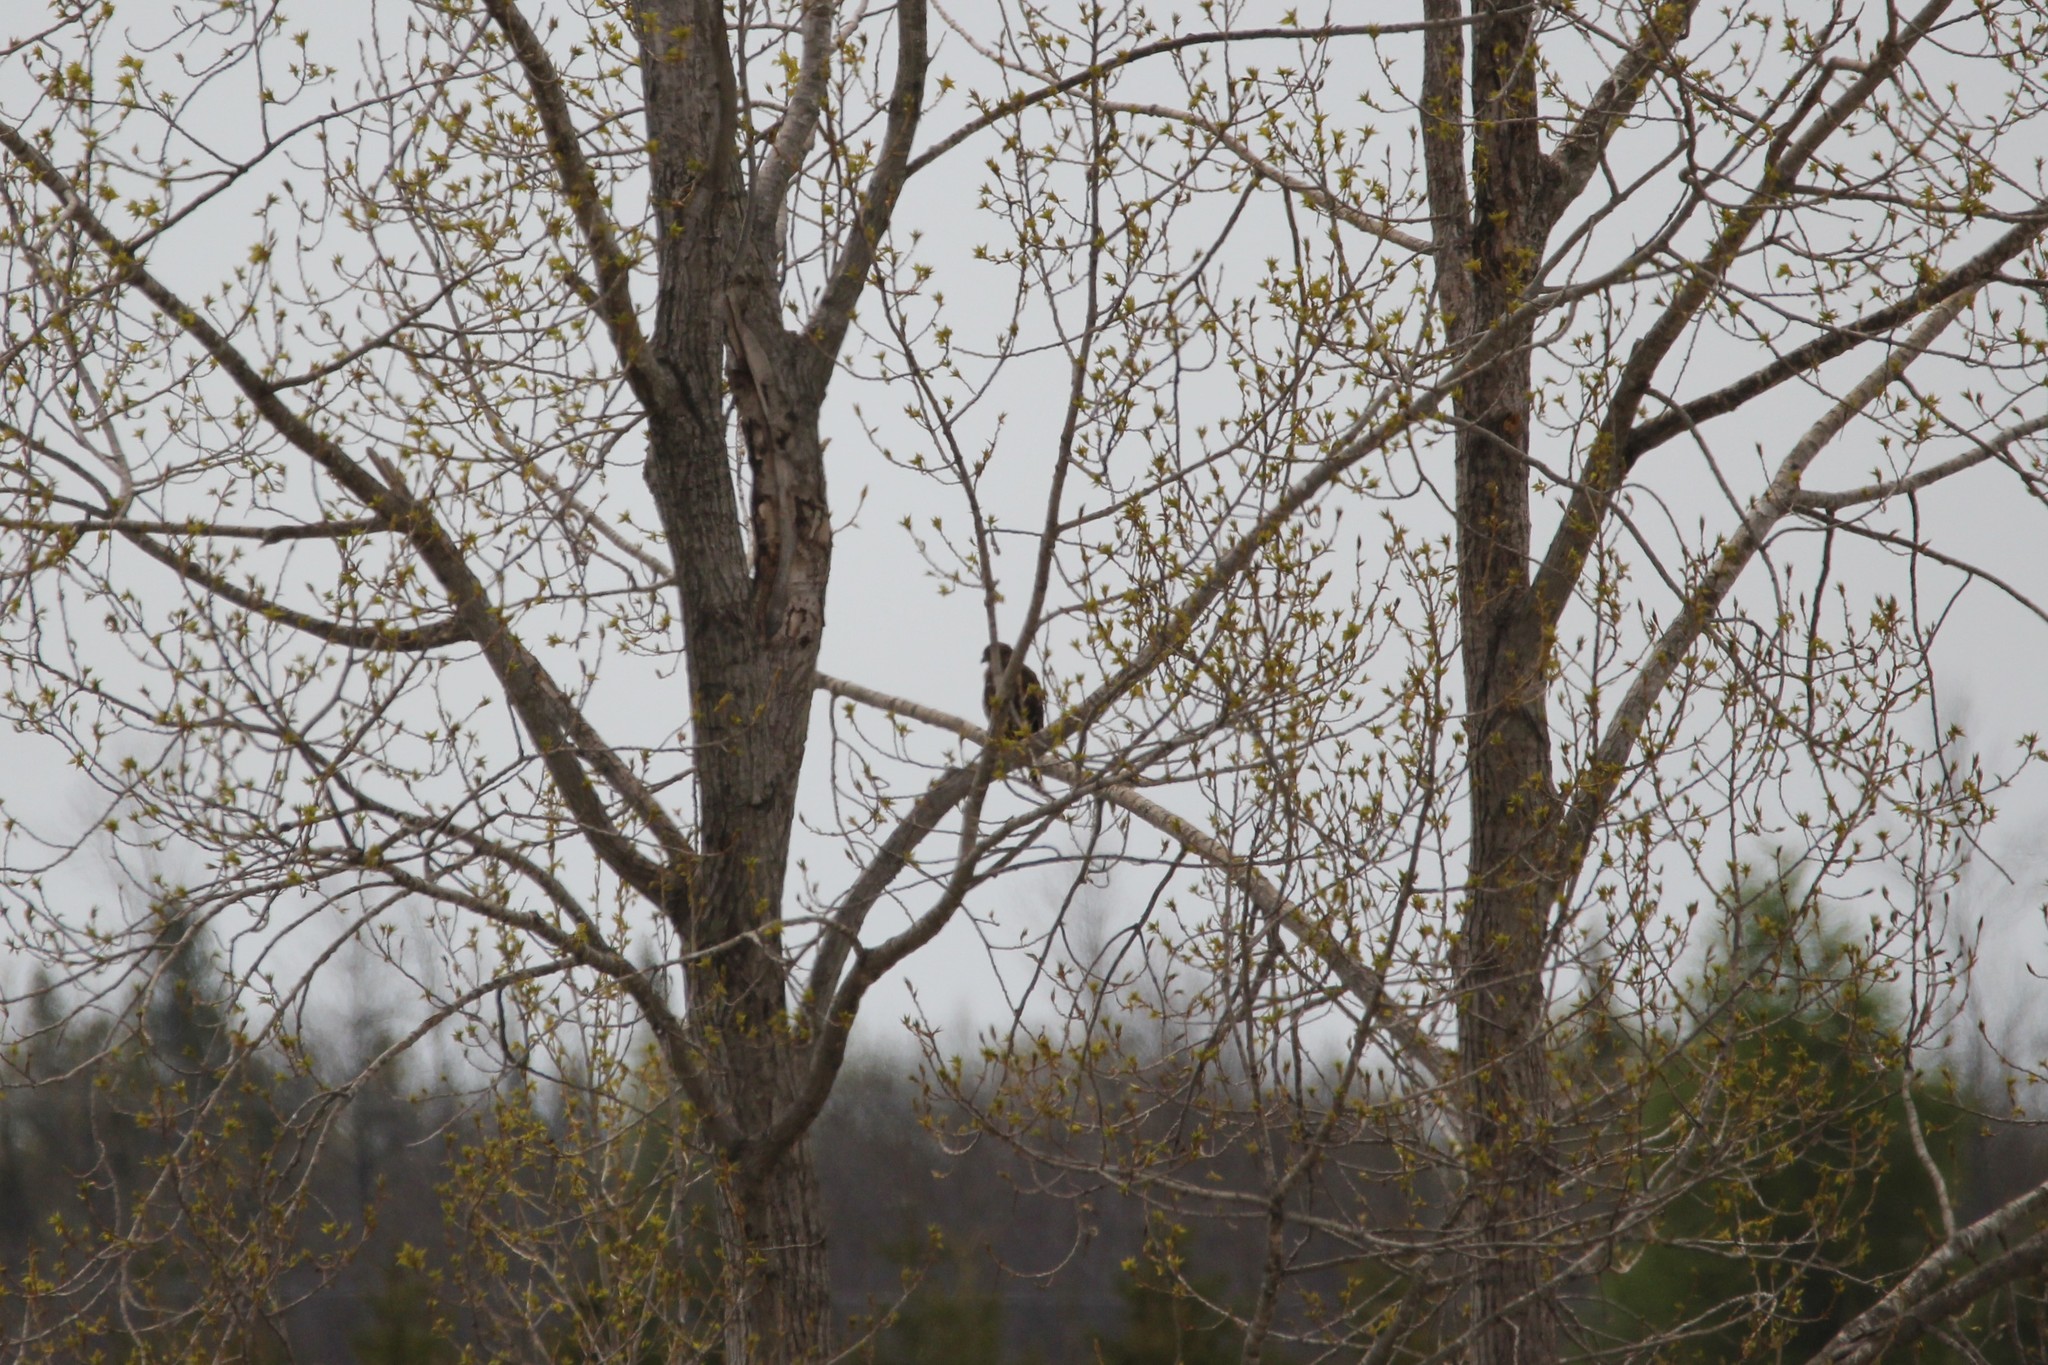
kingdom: Animalia
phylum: Chordata
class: Aves
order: Accipitriformes
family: Accipitridae
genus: Buteo
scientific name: Buteo platypterus
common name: Broad-winged hawk
